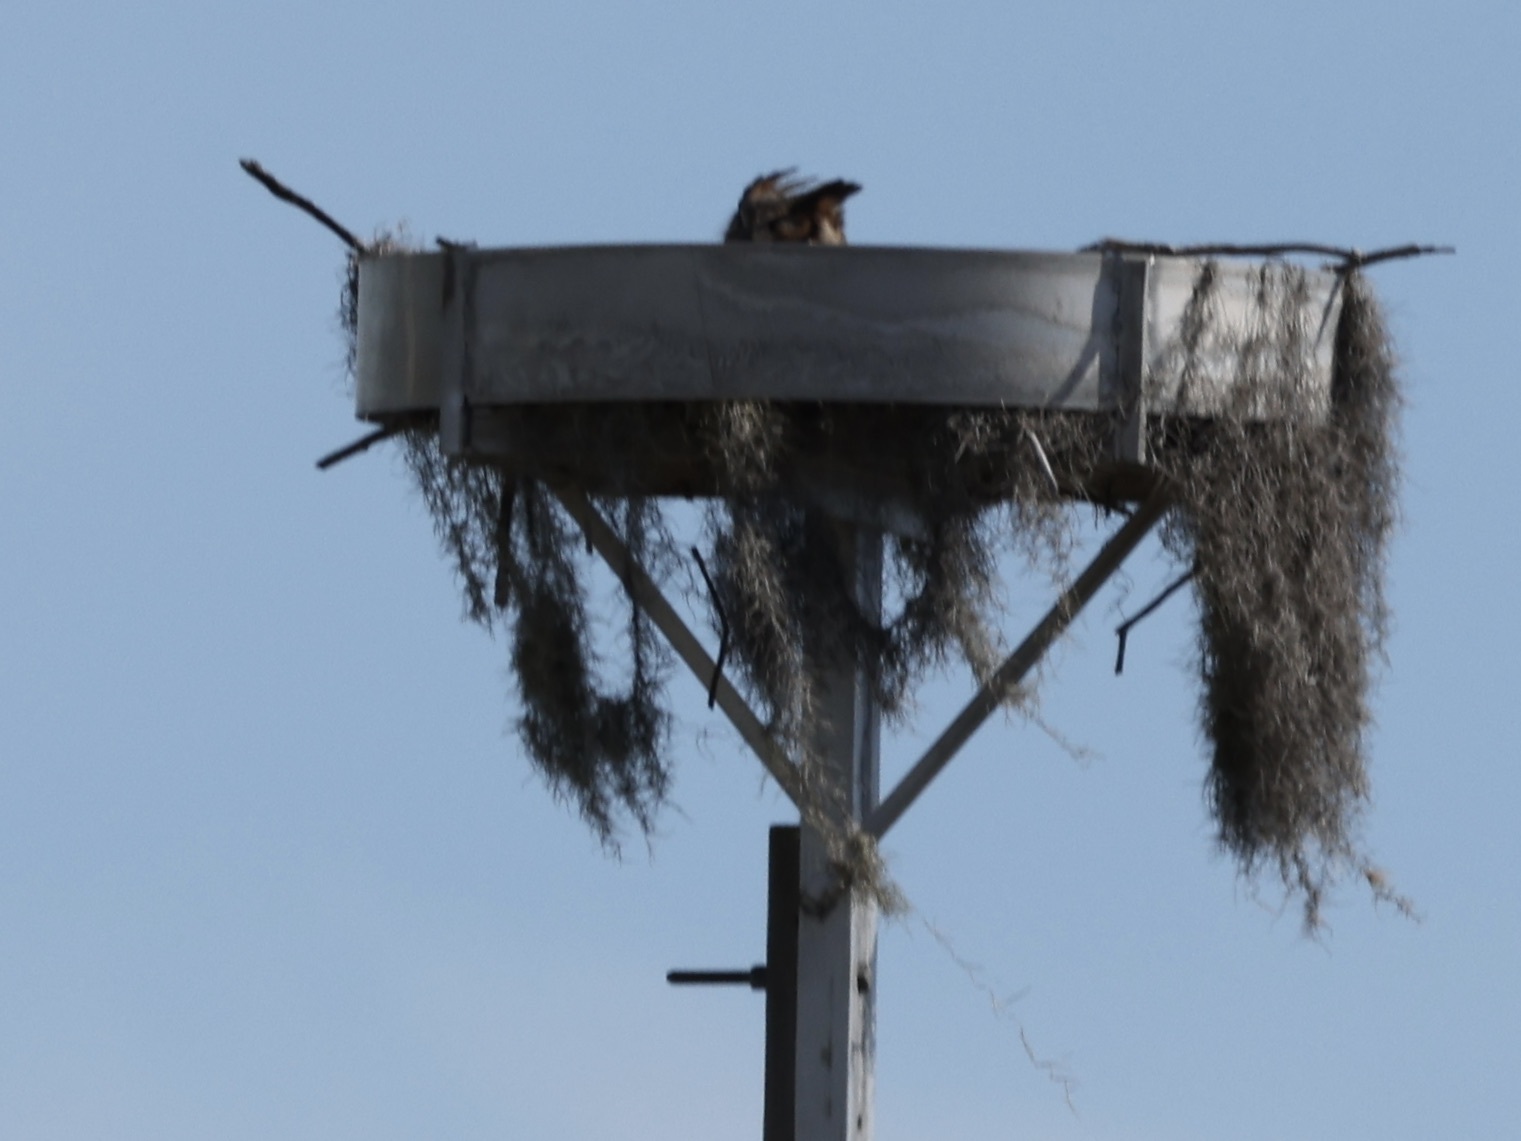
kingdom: Animalia
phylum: Chordata
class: Aves
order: Strigiformes
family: Strigidae
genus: Bubo
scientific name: Bubo virginianus
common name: Great horned owl
